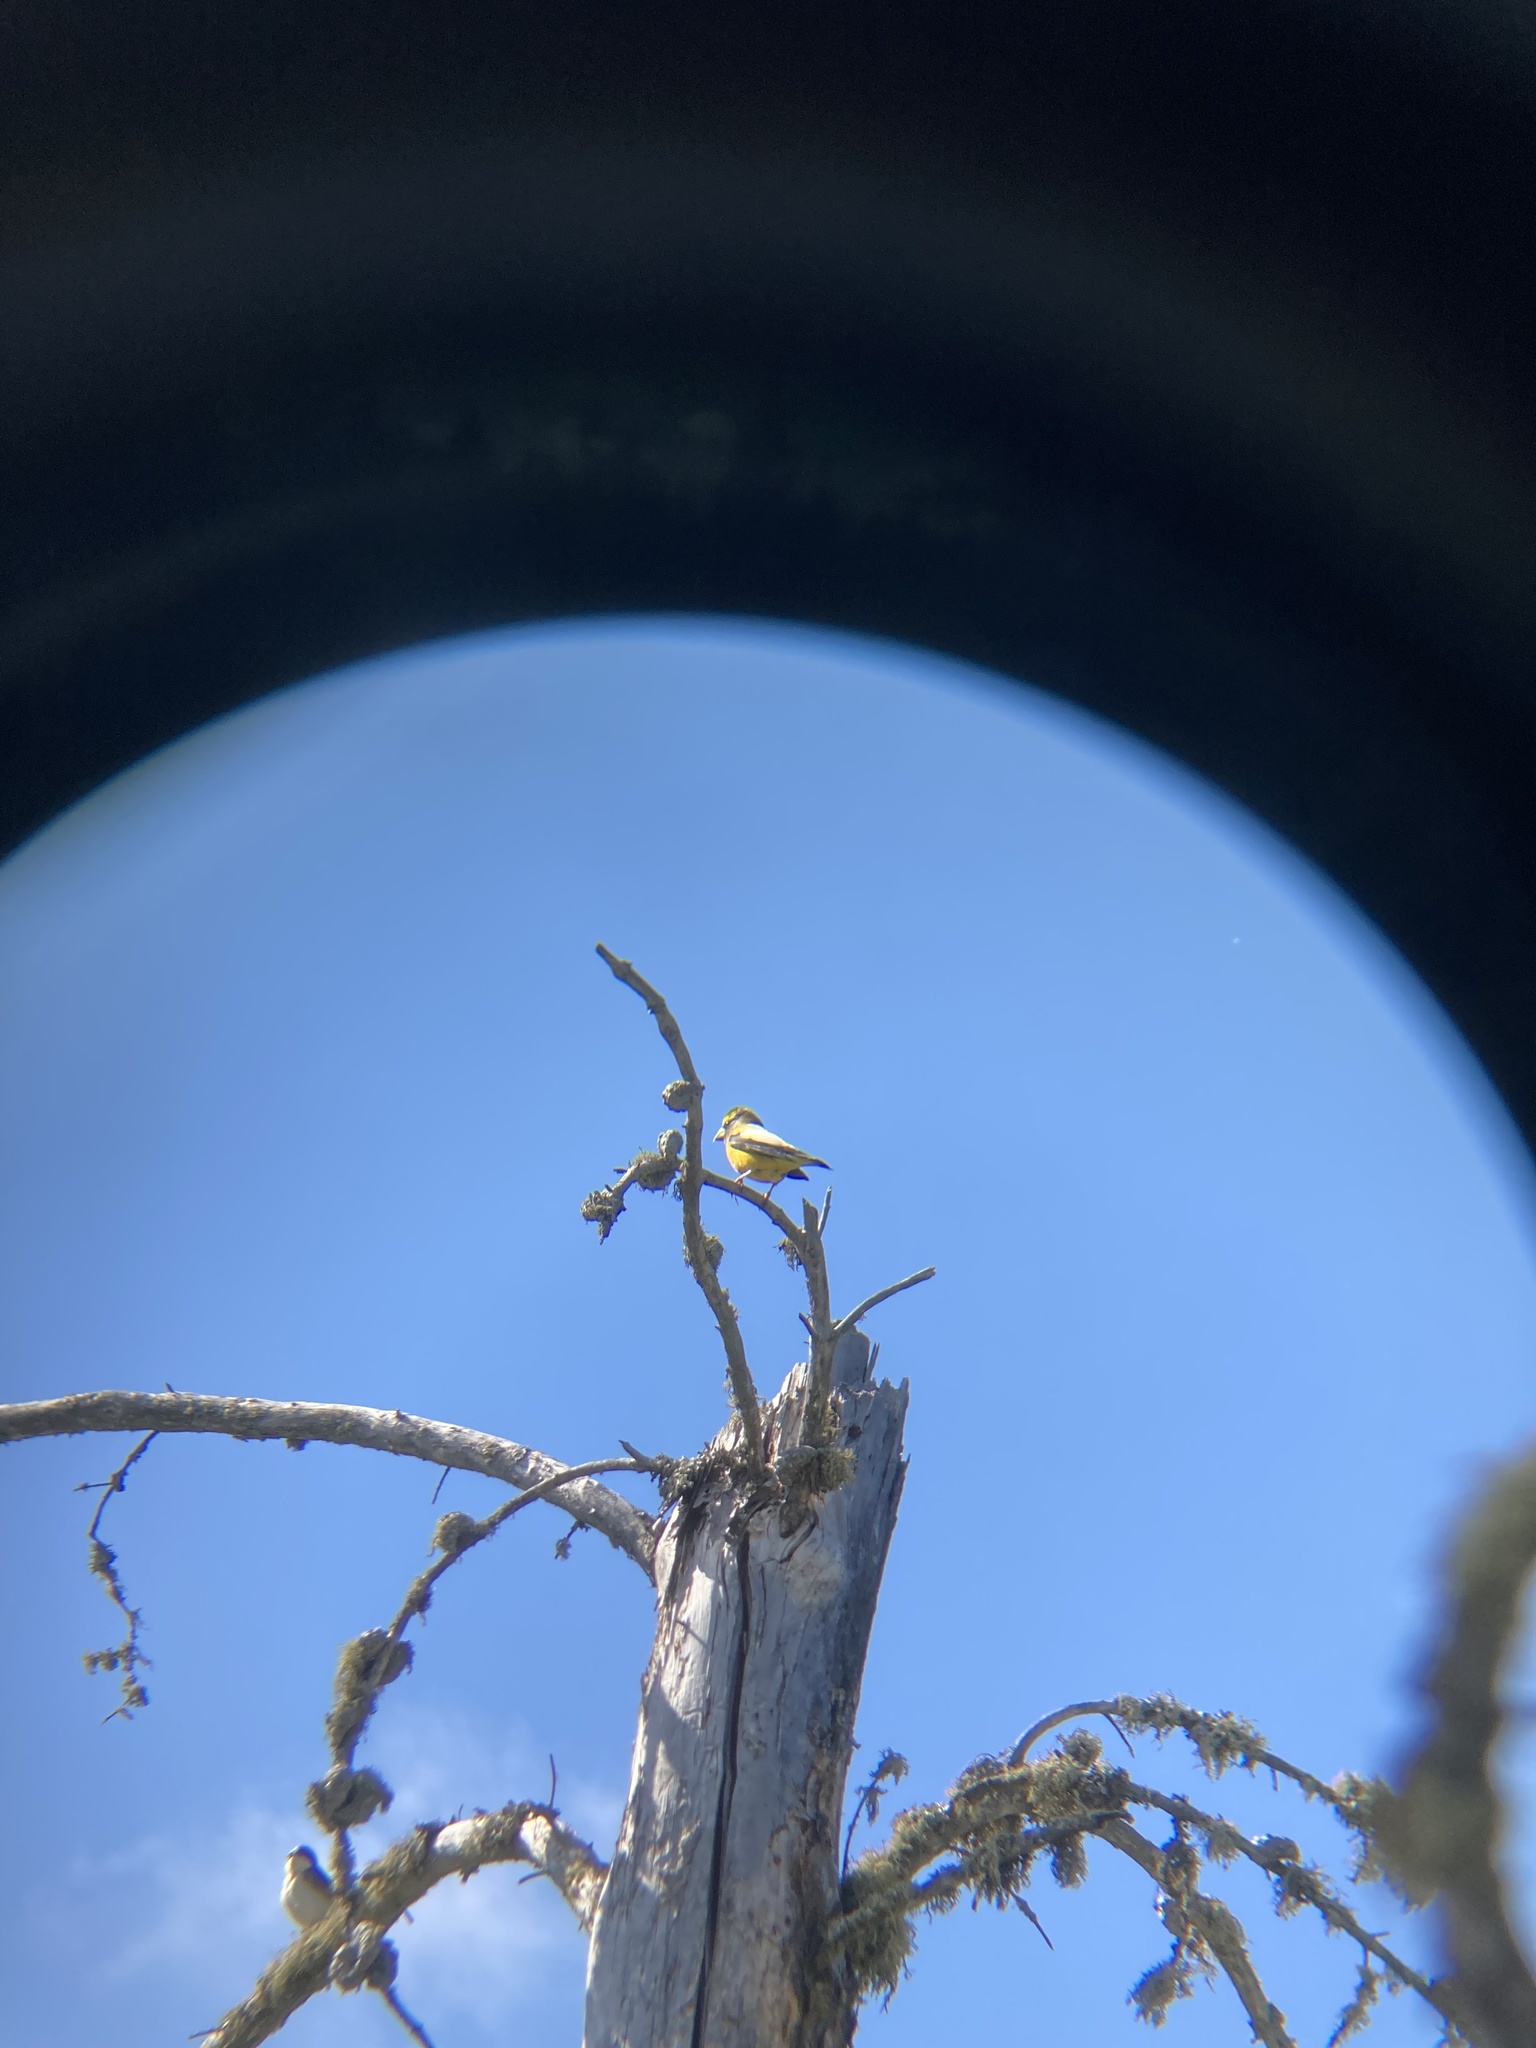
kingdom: Animalia
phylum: Chordata
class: Aves
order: Passeriformes
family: Fringillidae
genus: Hesperiphona
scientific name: Hesperiphona vespertina
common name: Evening grosbeak
